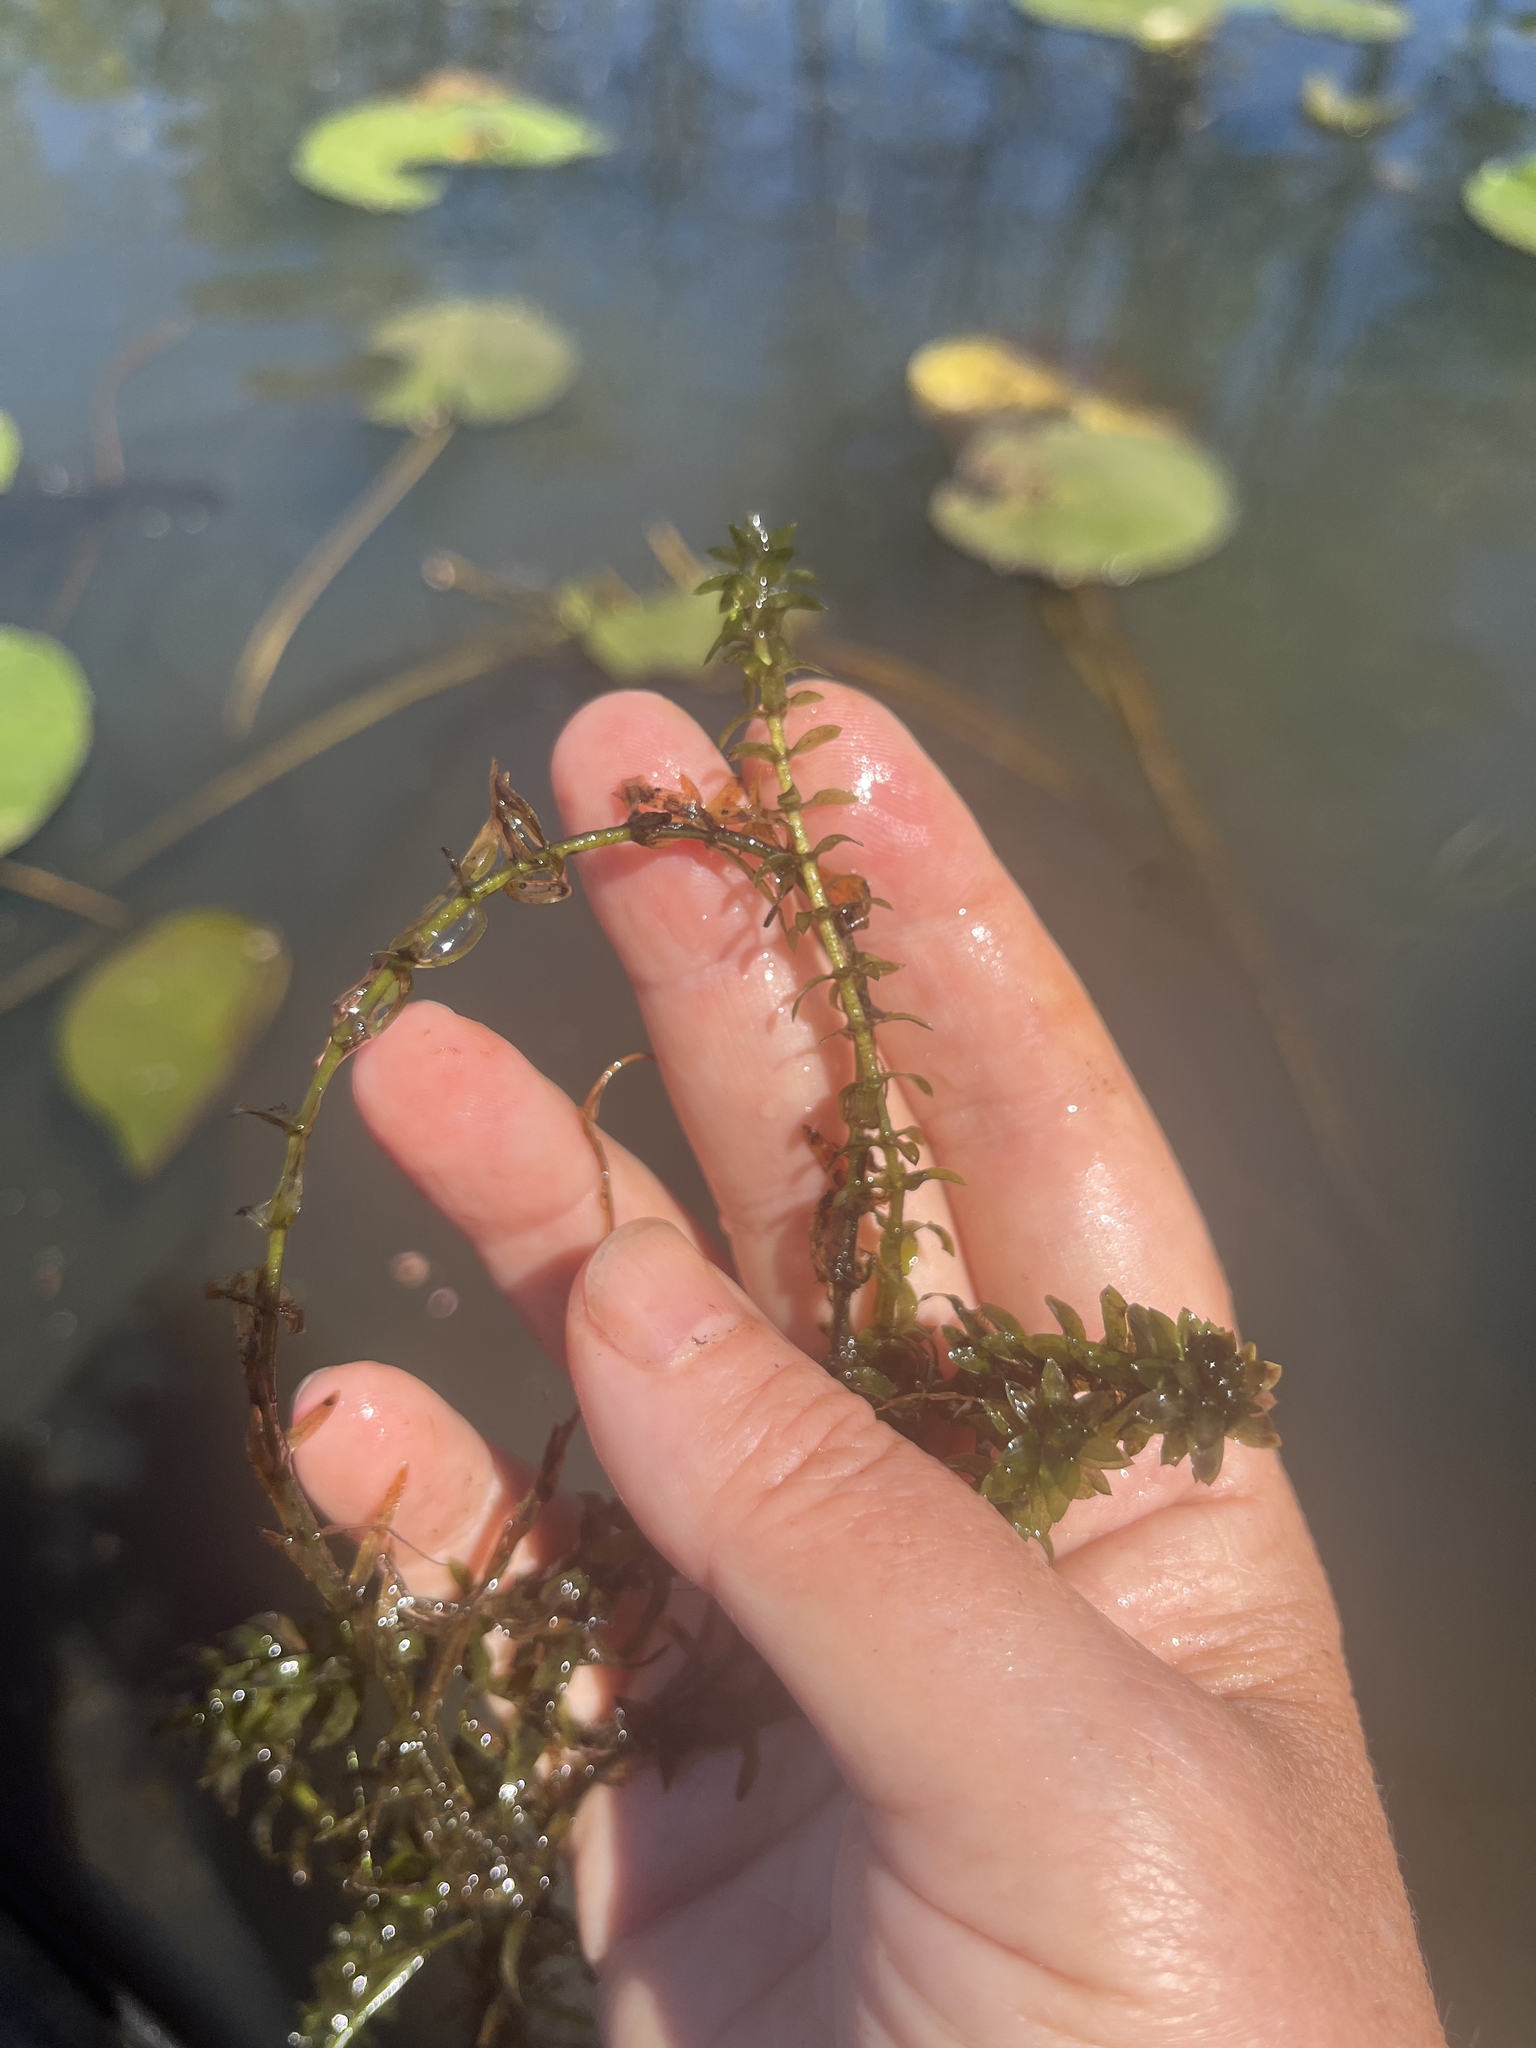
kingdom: Plantae
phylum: Tracheophyta
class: Liliopsida
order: Alismatales
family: Hydrocharitaceae
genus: Elodea
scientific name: Elodea canadensis
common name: Canadian waterweed
